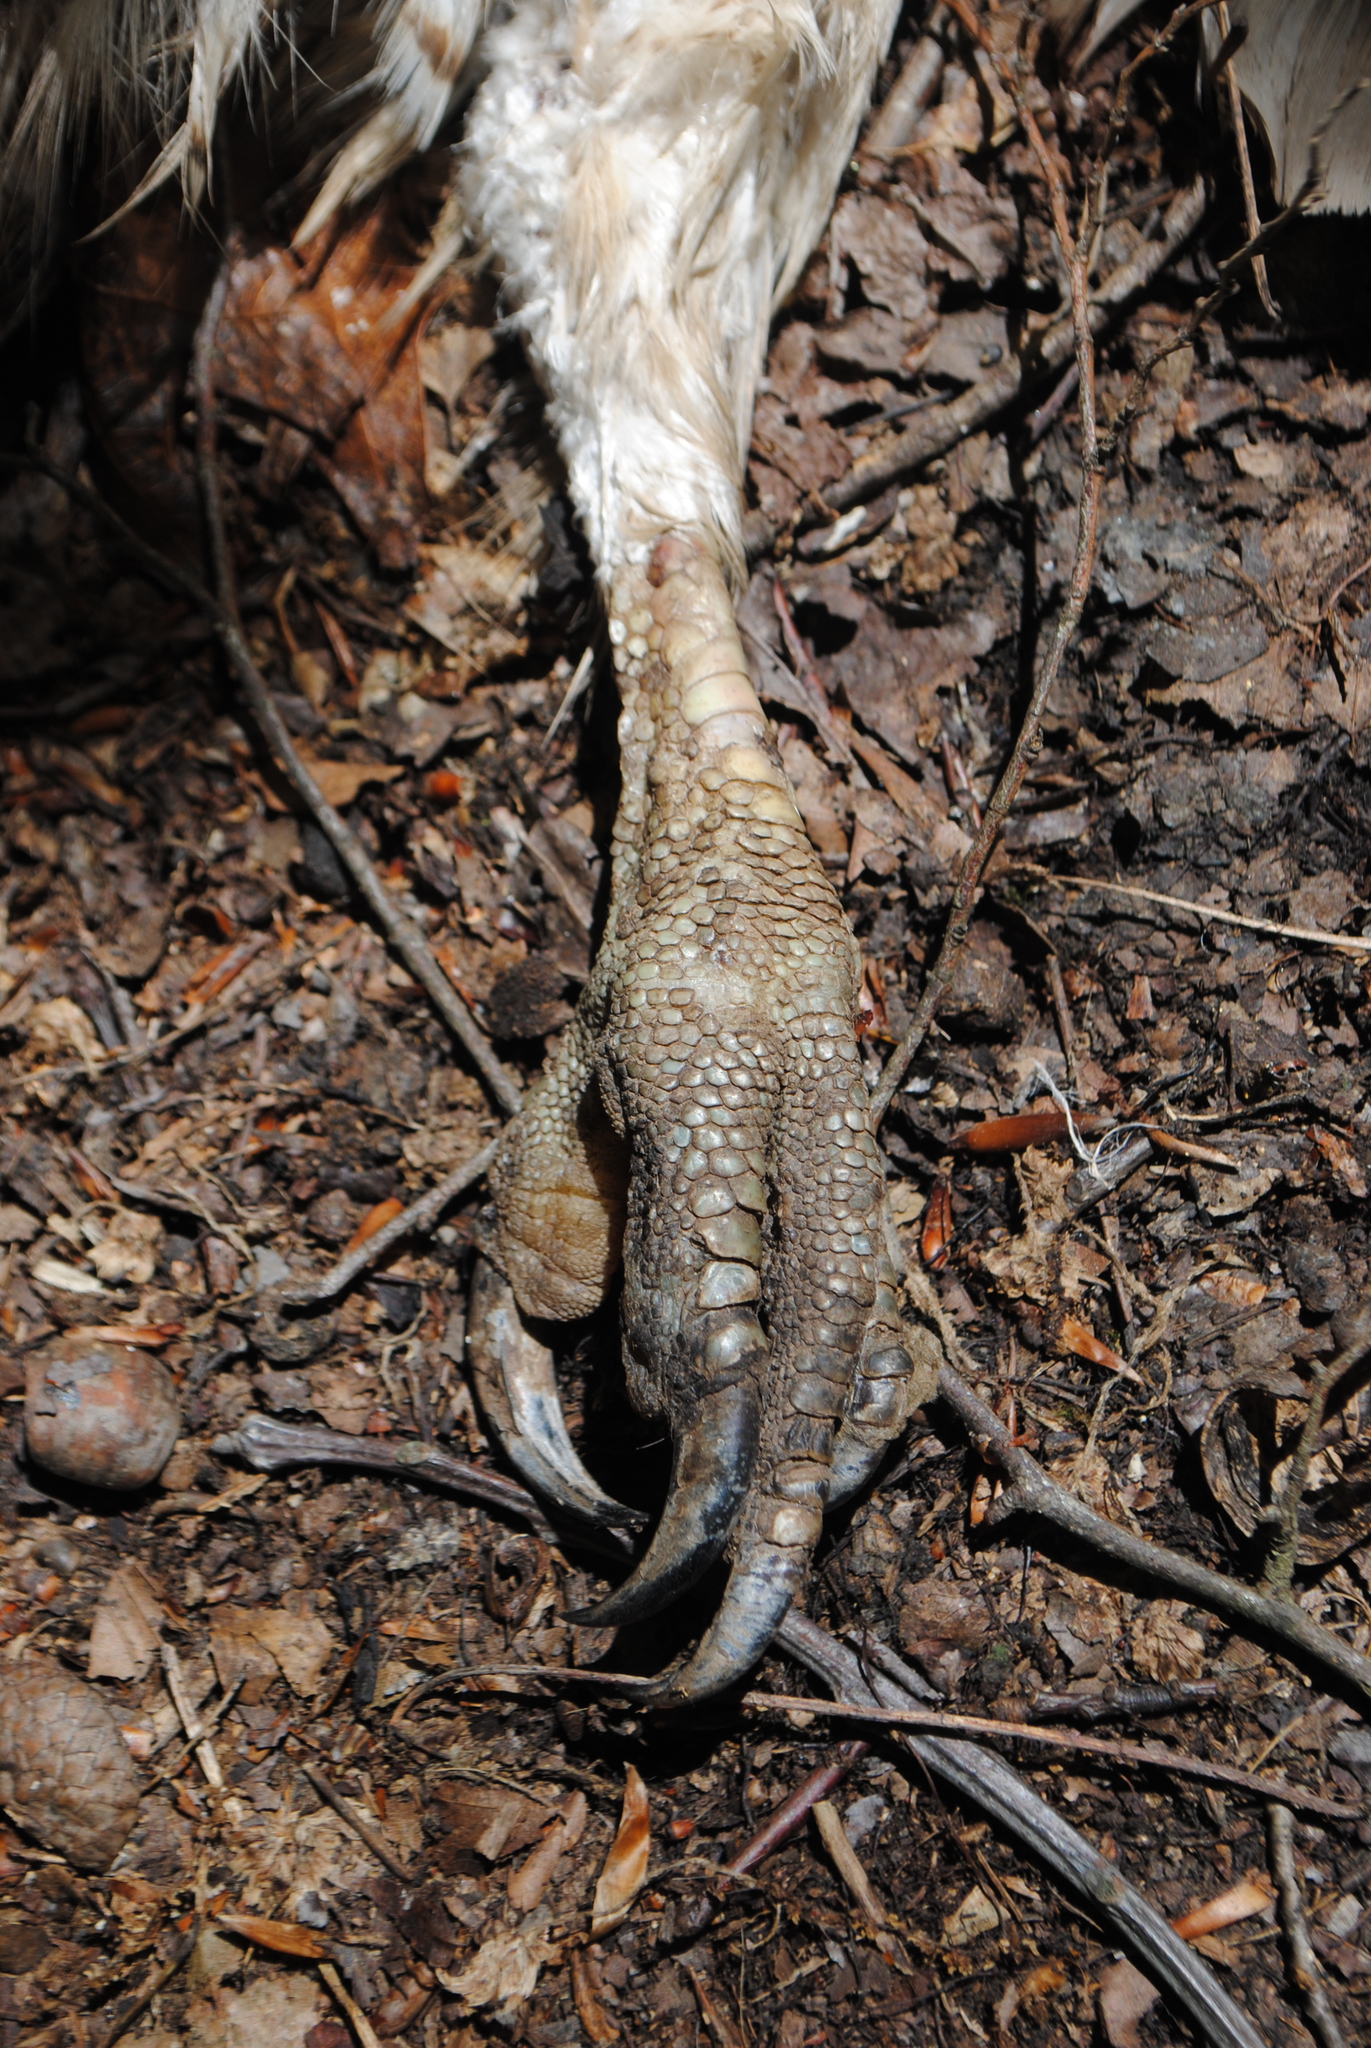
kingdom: Animalia
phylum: Chordata
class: Aves
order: Accipitriformes
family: Accipitridae
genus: Buteo
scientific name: Buteo jamaicensis
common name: Red-tailed hawk
